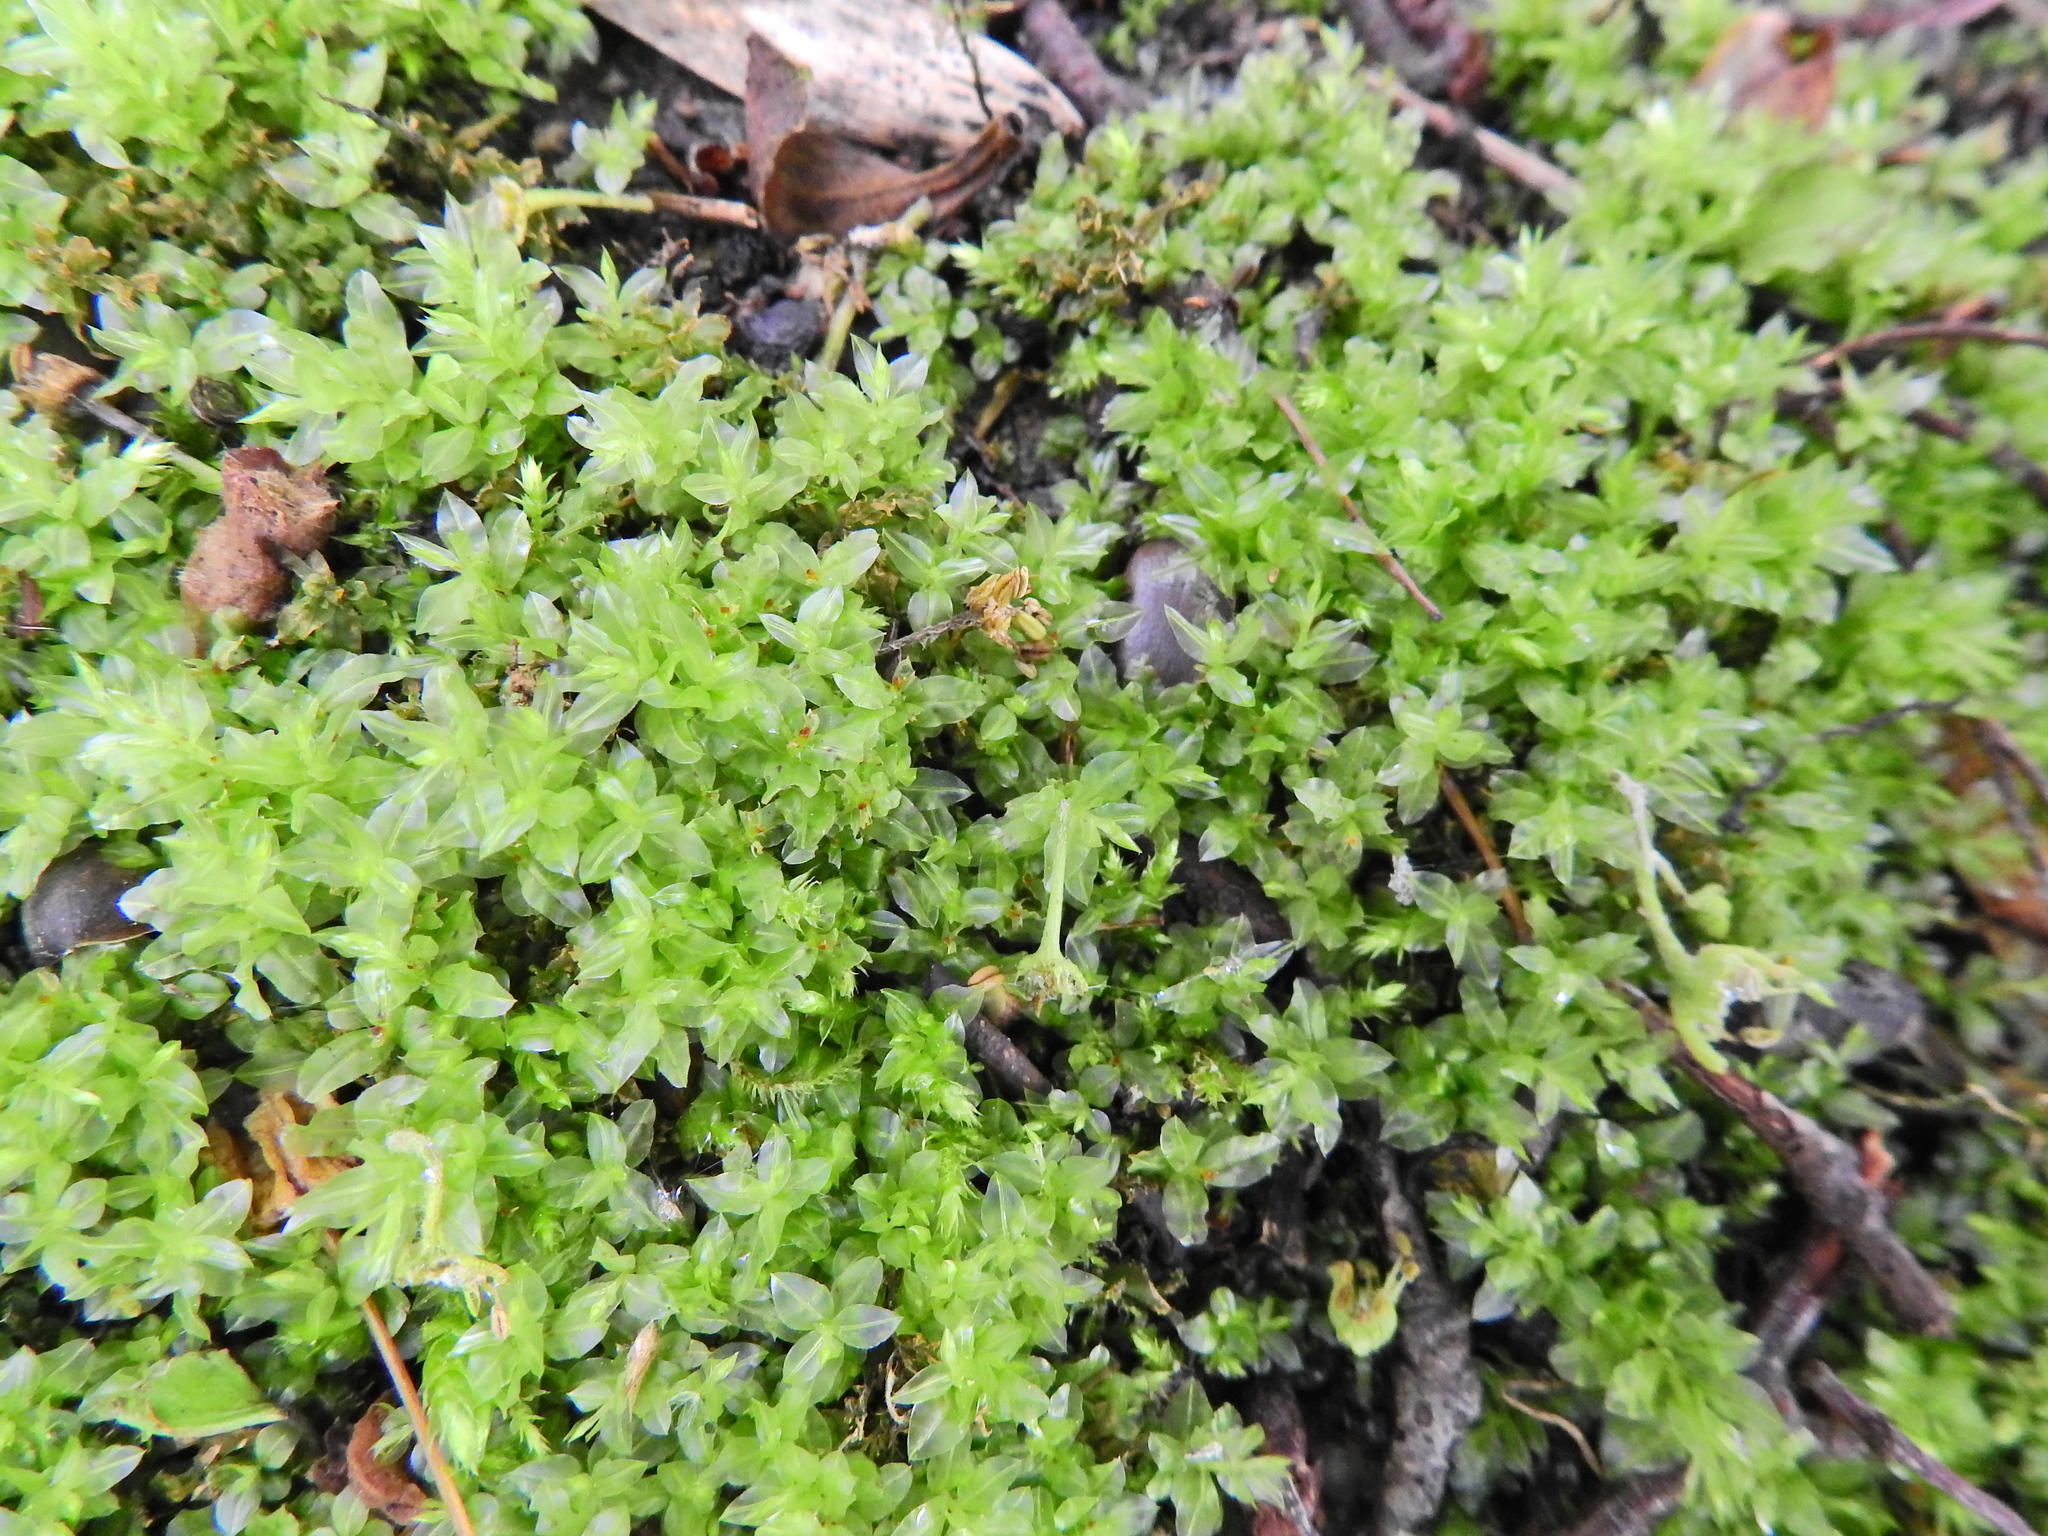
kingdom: Plantae
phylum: Bryophyta
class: Bryopsida
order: Bryales
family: Mniaceae
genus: Plagiomnium
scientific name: Plagiomnium undulatum
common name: Hart's-tongue thyme-moss
